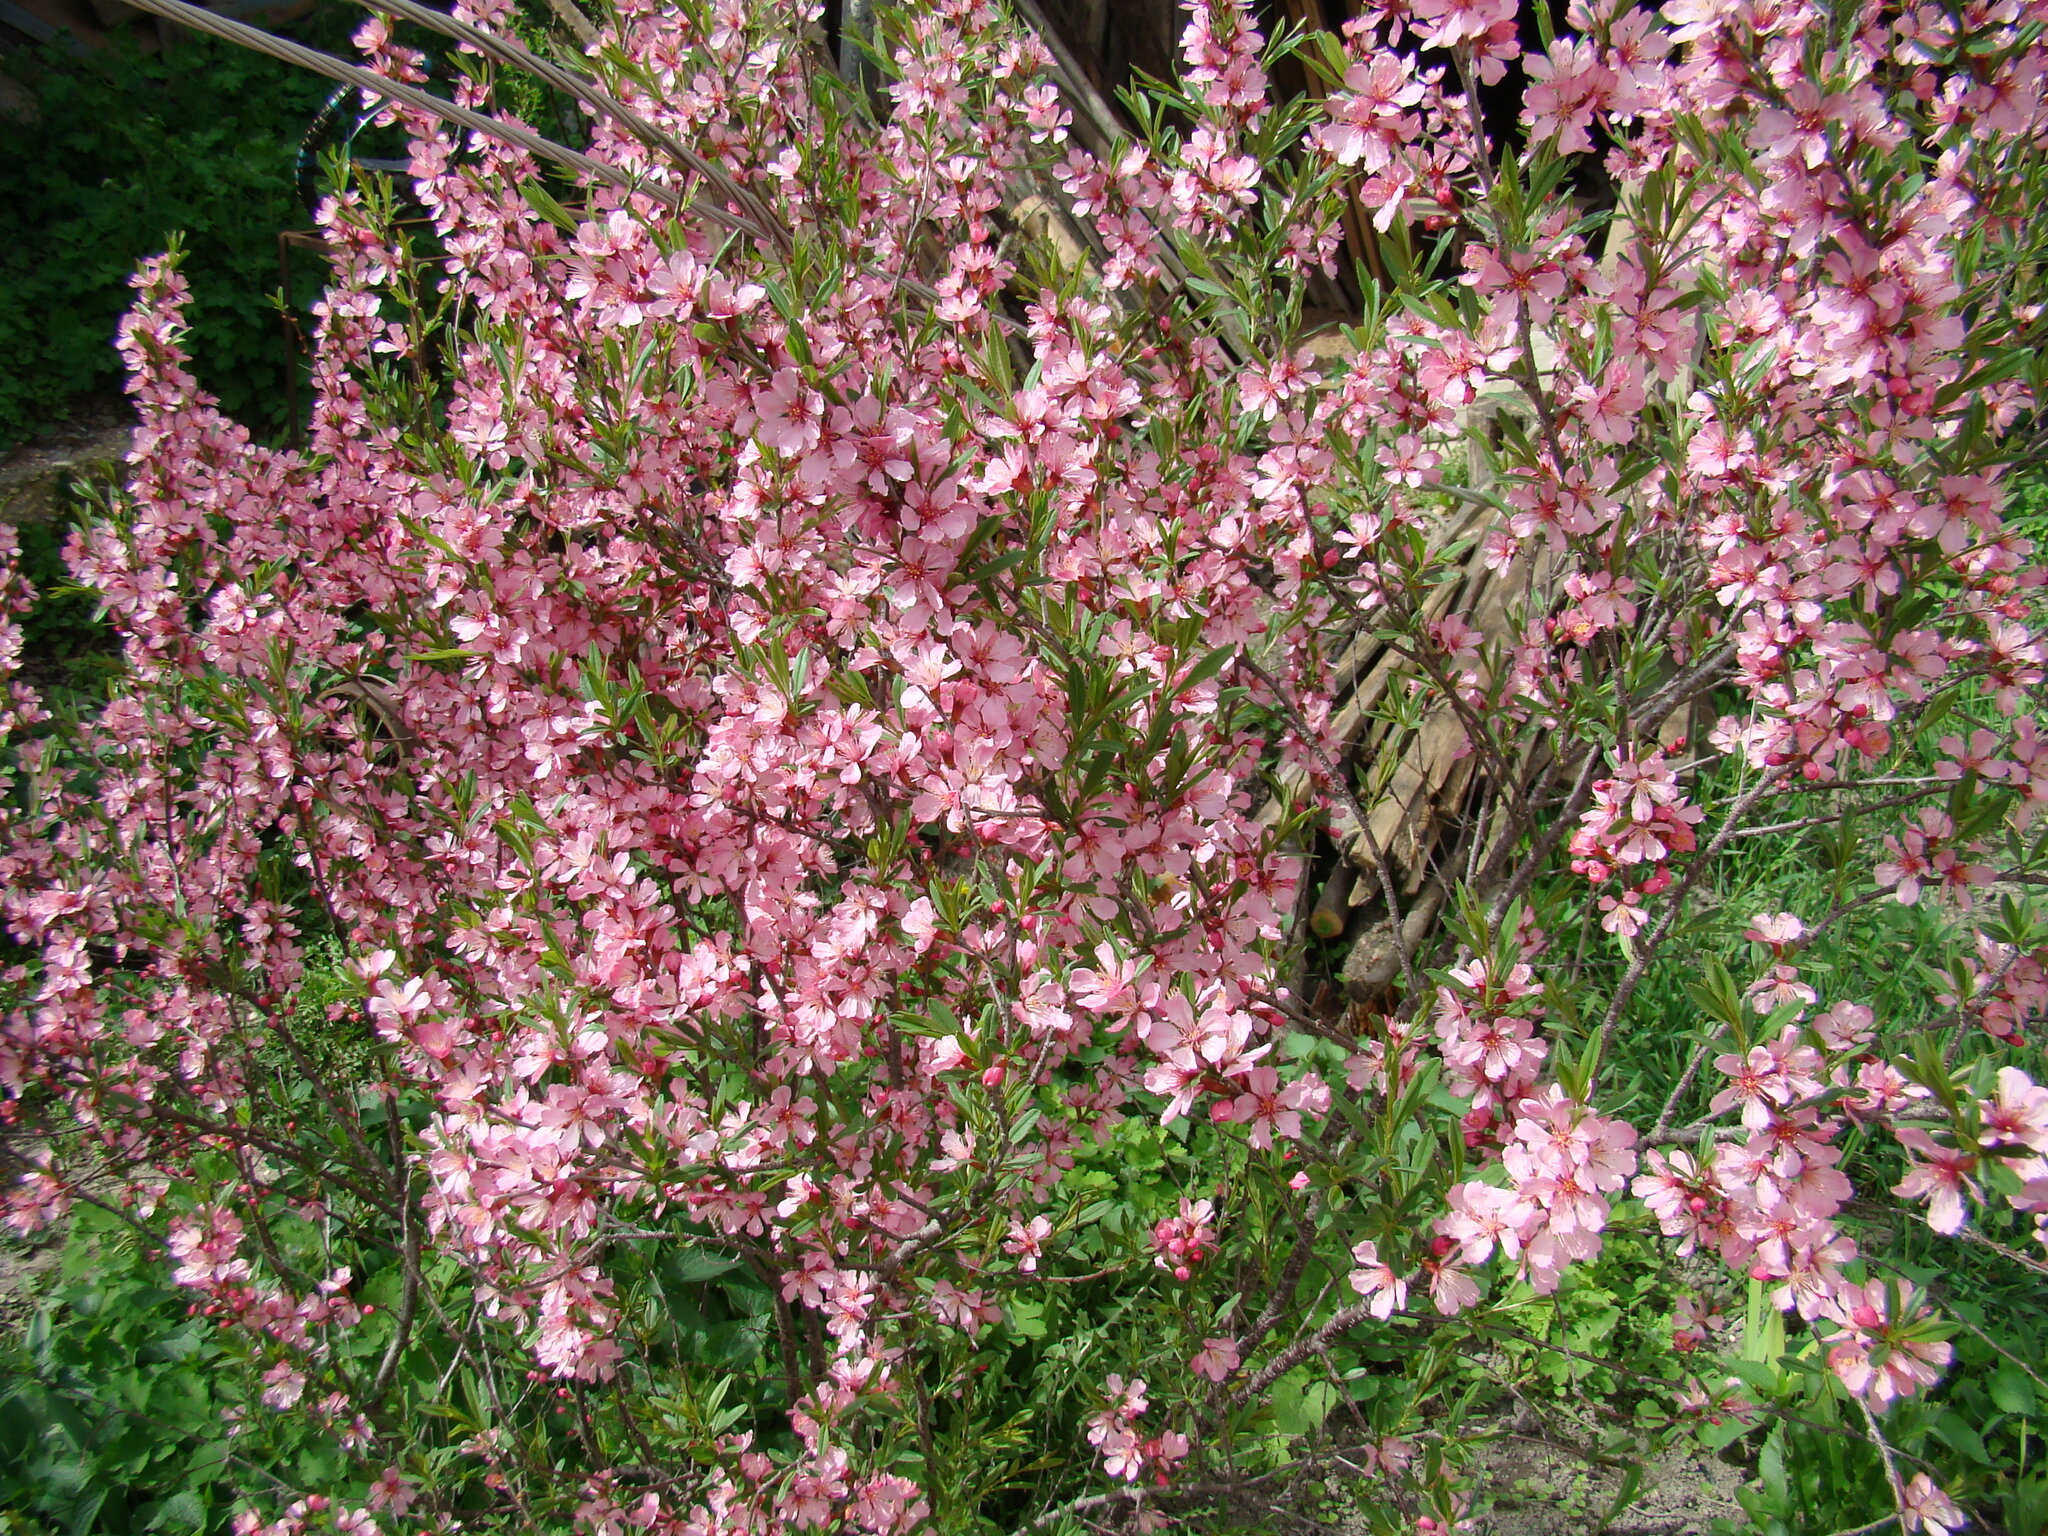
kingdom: Plantae
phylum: Tracheophyta
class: Magnoliopsida
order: Rosales
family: Rosaceae
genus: Prunus
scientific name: Prunus tenella
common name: Dwarf russian almond
